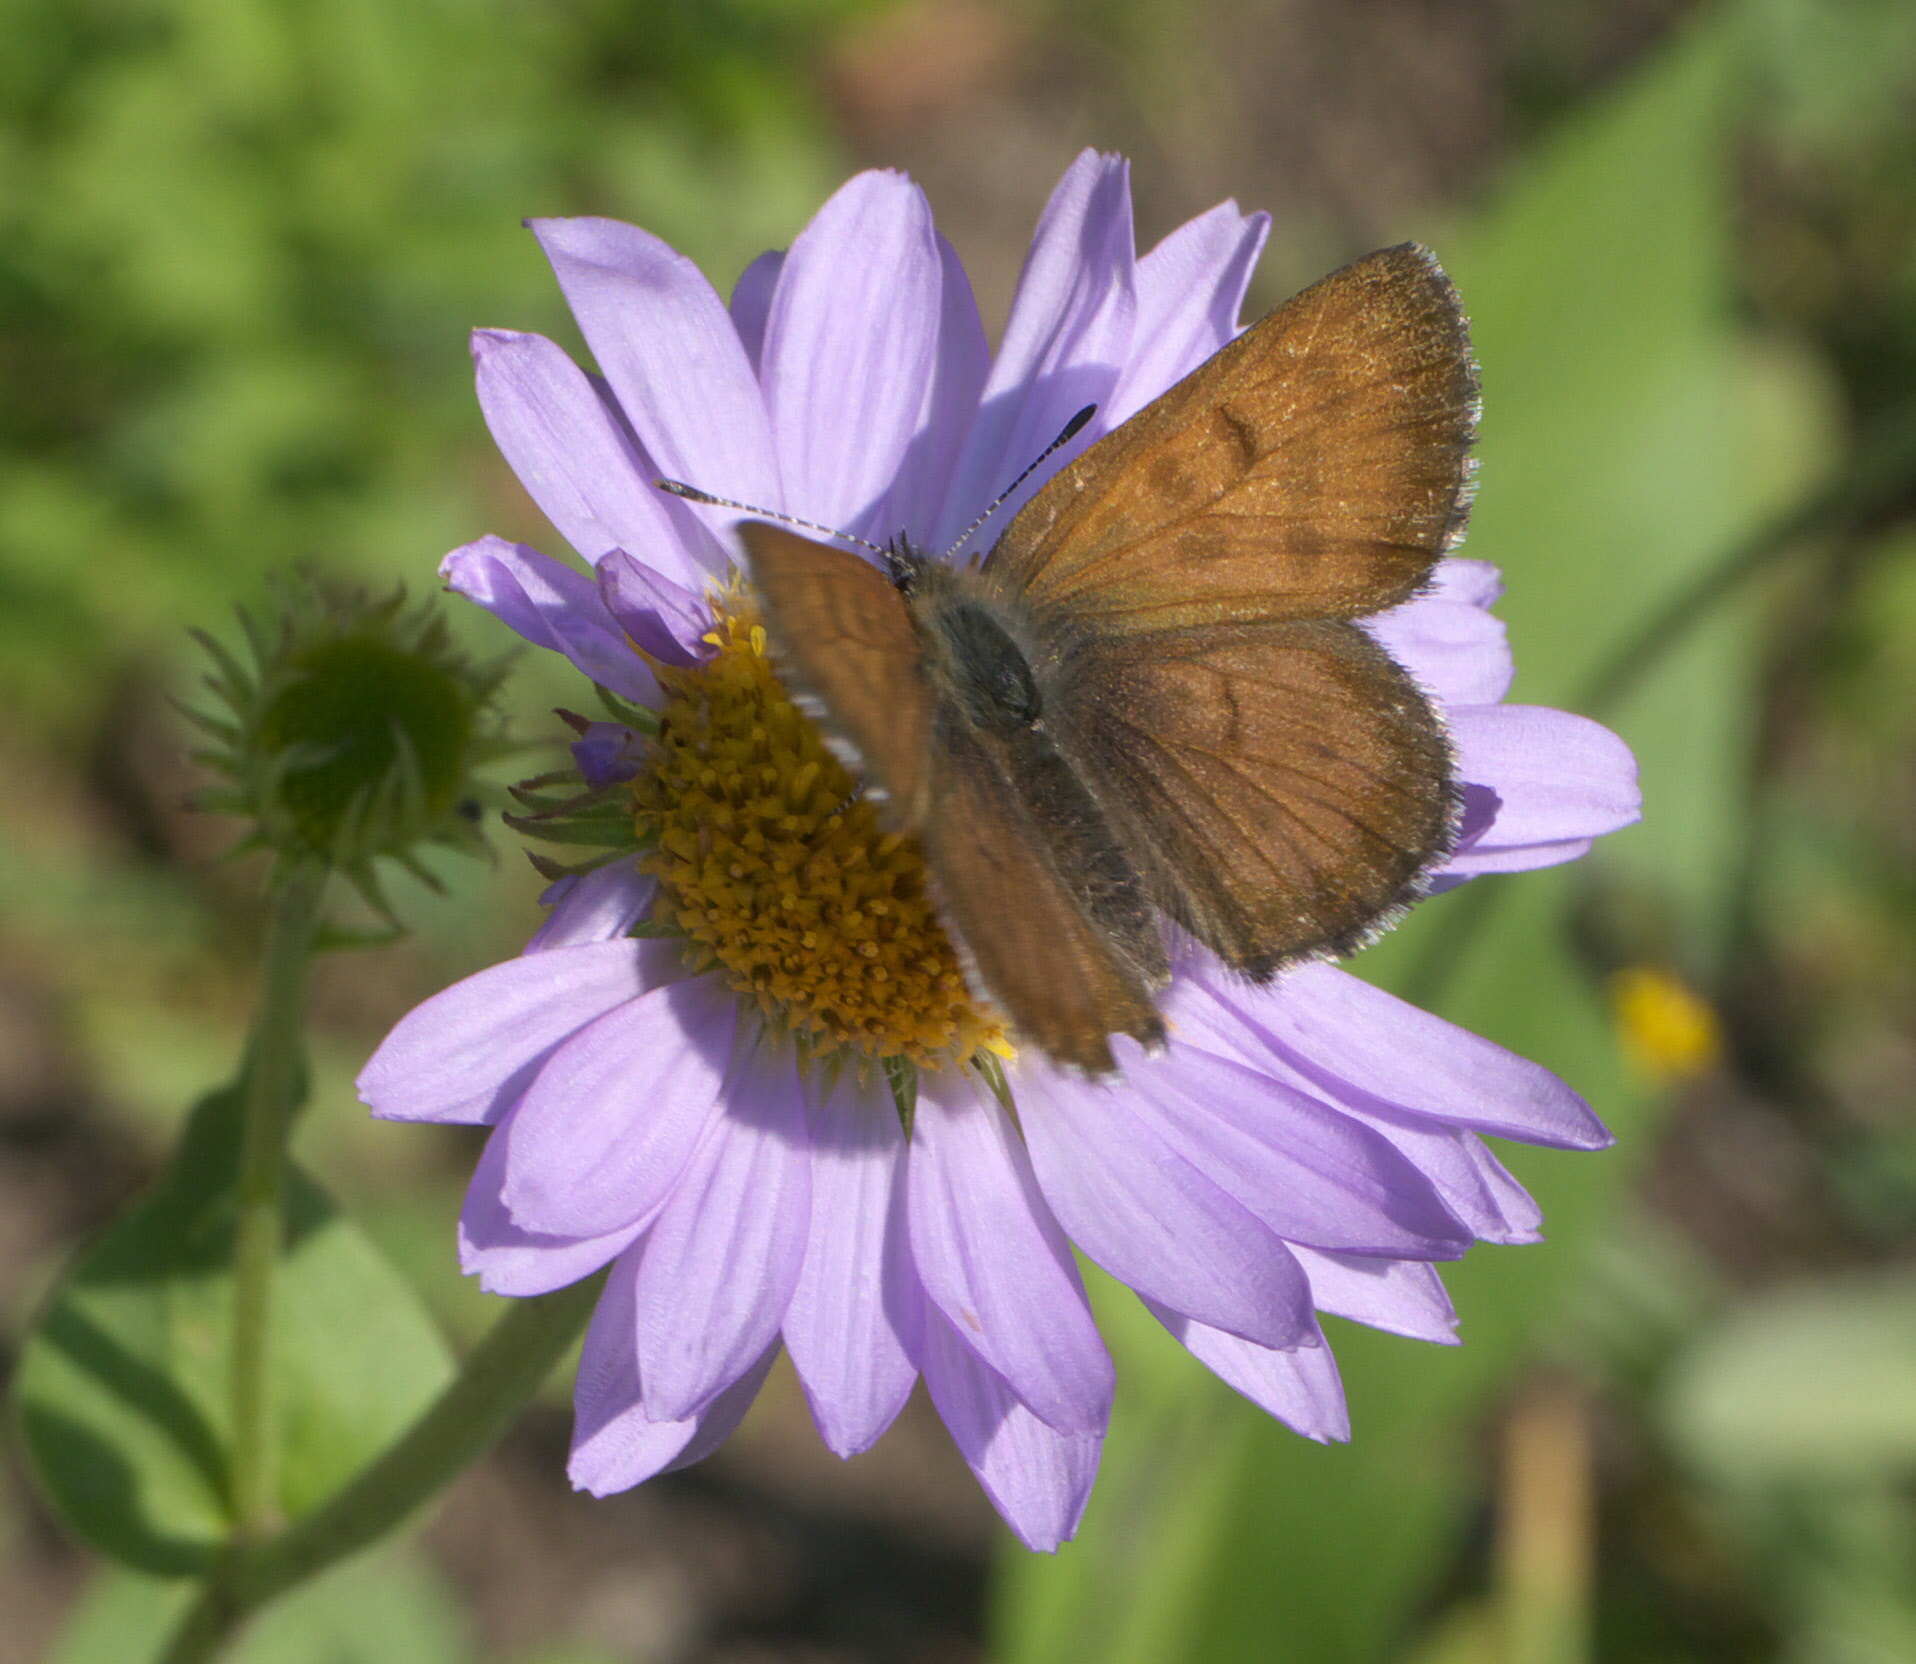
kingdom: Animalia
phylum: Arthropoda
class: Insecta
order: Lepidoptera
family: Lycaenidae
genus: Tharsalea
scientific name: Tharsalea mariposa
